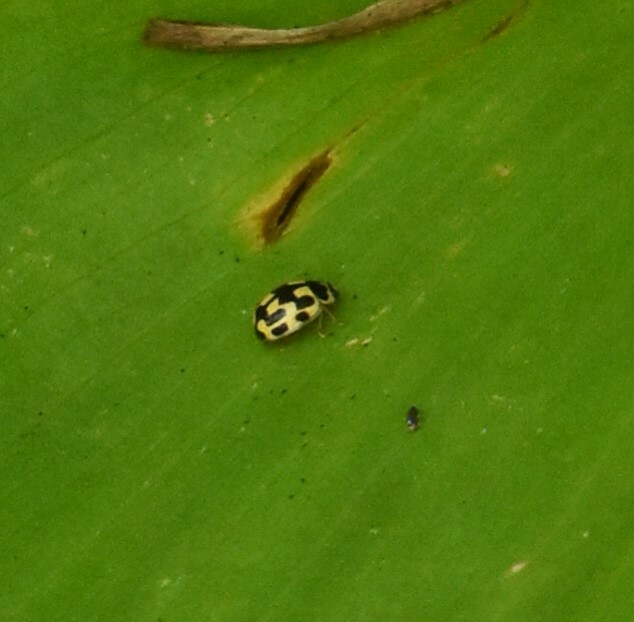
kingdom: Animalia
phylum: Arthropoda
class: Insecta
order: Coleoptera
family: Coccinellidae
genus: Propylaea
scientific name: Propylaea quatuordecimpunctata
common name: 14-spotted ladybird beetle
